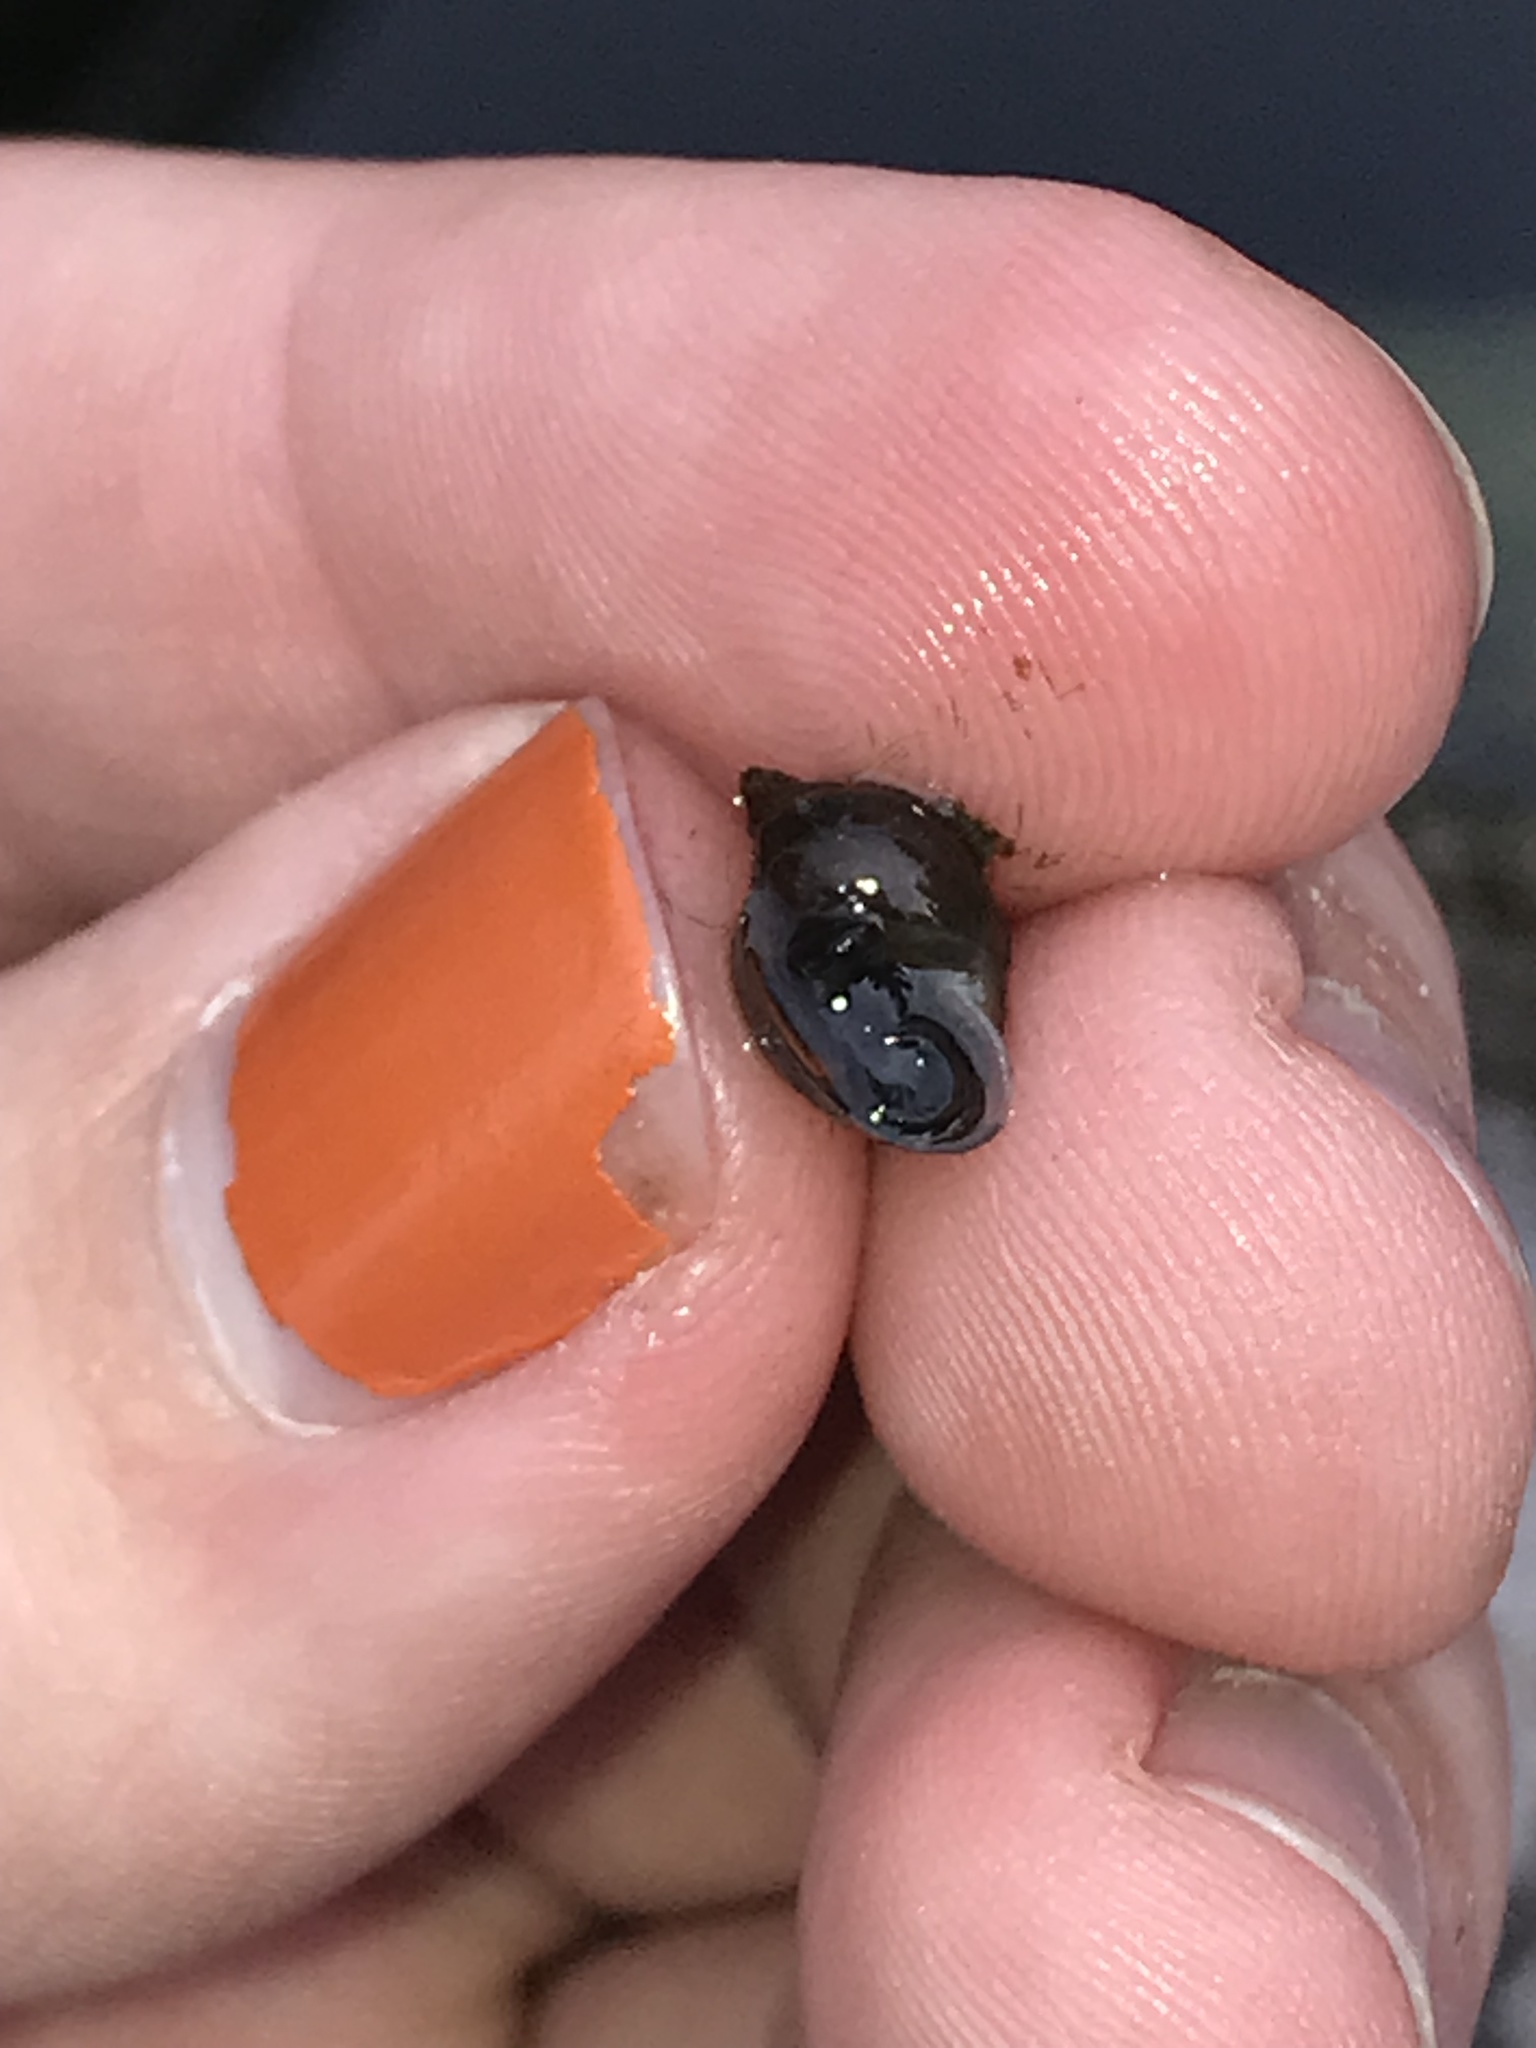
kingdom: Animalia
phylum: Mollusca
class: Gastropoda
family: Physidae
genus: Physella
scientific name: Physella acuta
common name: European physa
